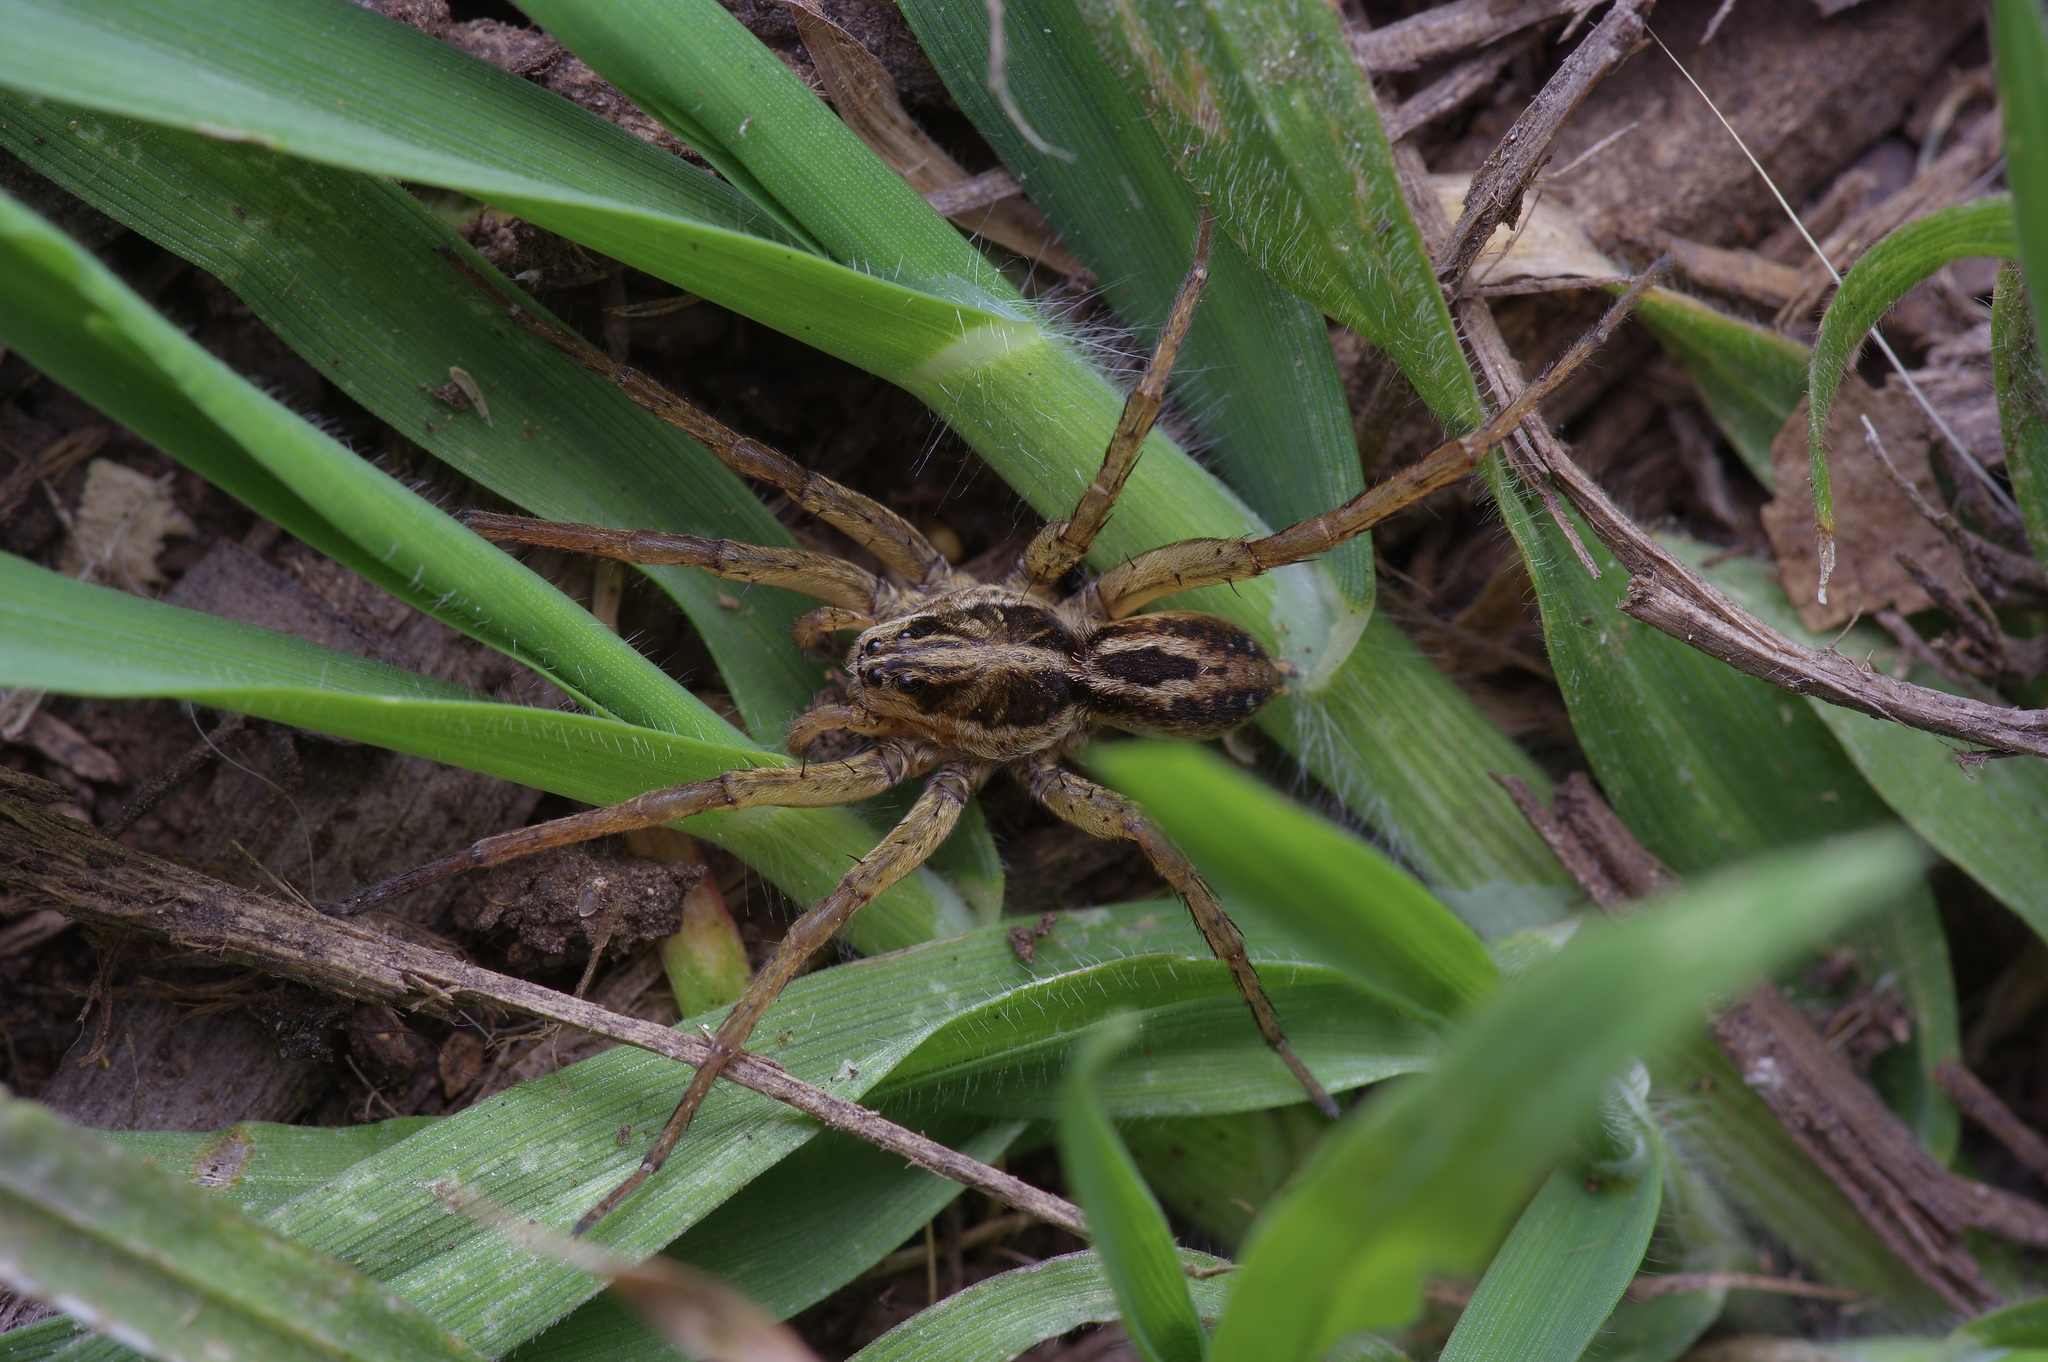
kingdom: Animalia
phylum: Arthropoda
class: Arachnida
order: Araneae
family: Lycosidae
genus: Tigrosa
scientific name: Tigrosa annexa
